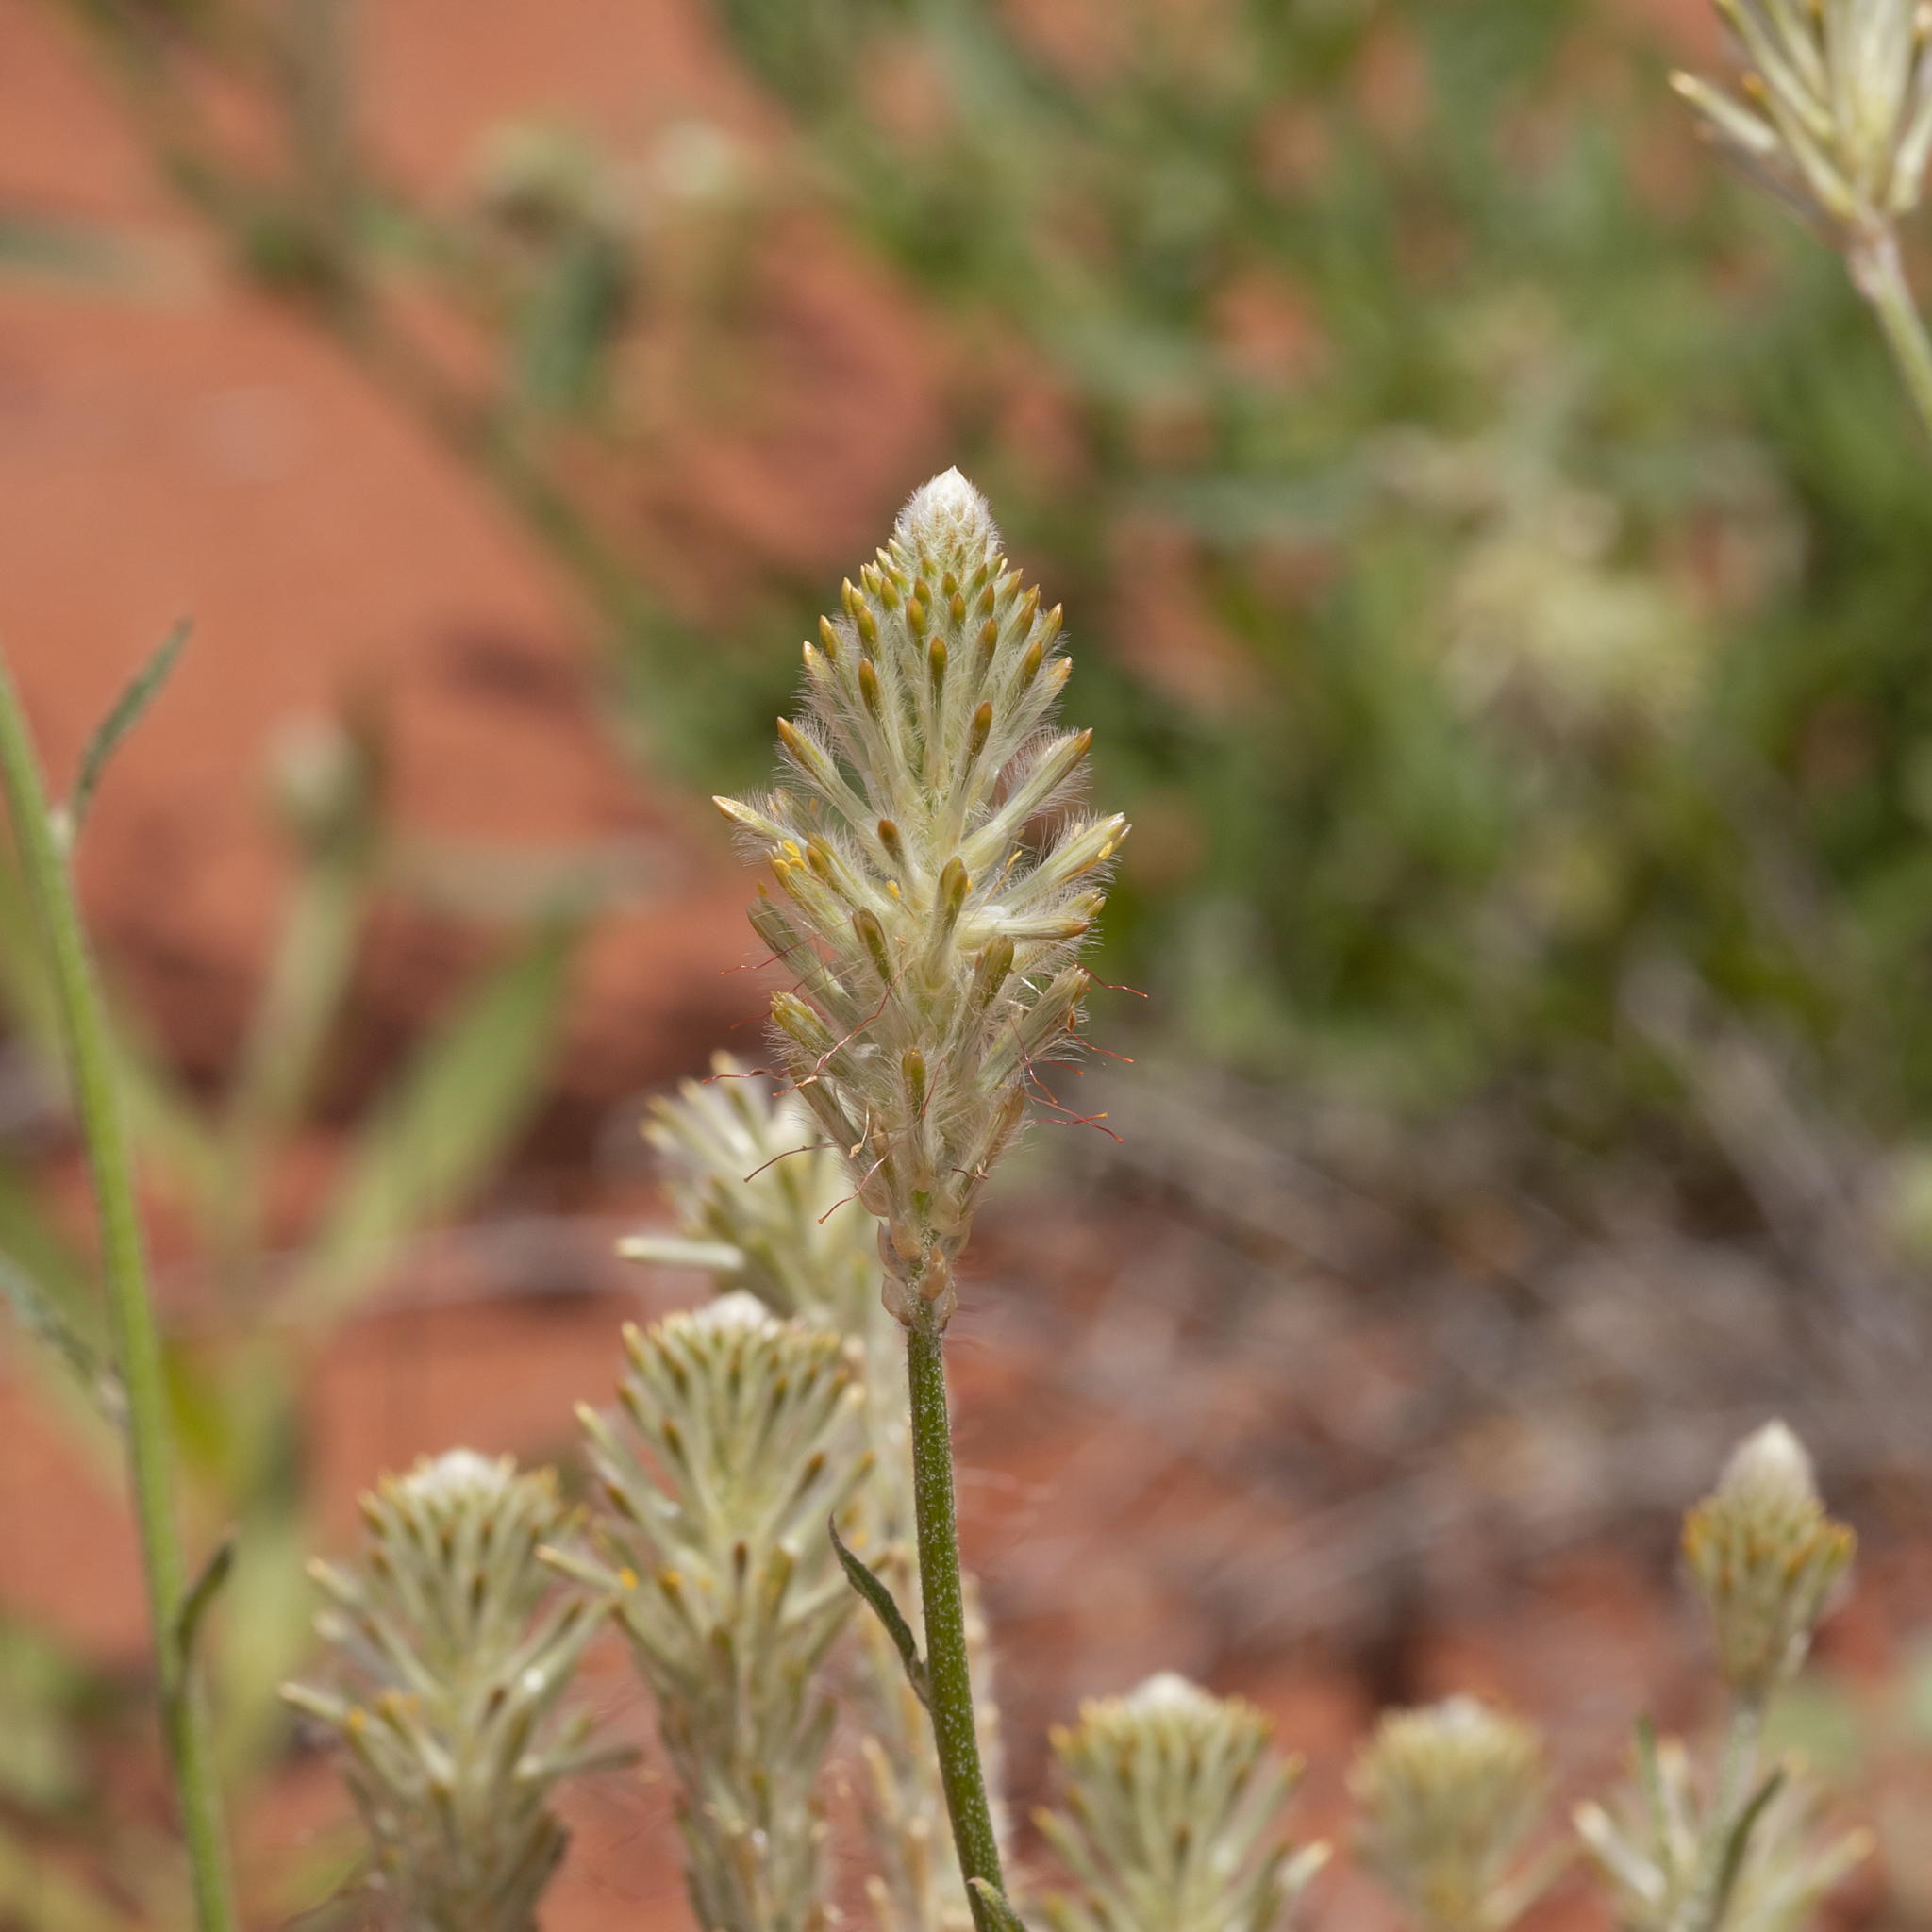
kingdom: Plantae
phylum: Tracheophyta
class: Magnoliopsida
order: Caryophyllales
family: Amaranthaceae
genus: Ptilotus
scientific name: Ptilotus polystachyus
